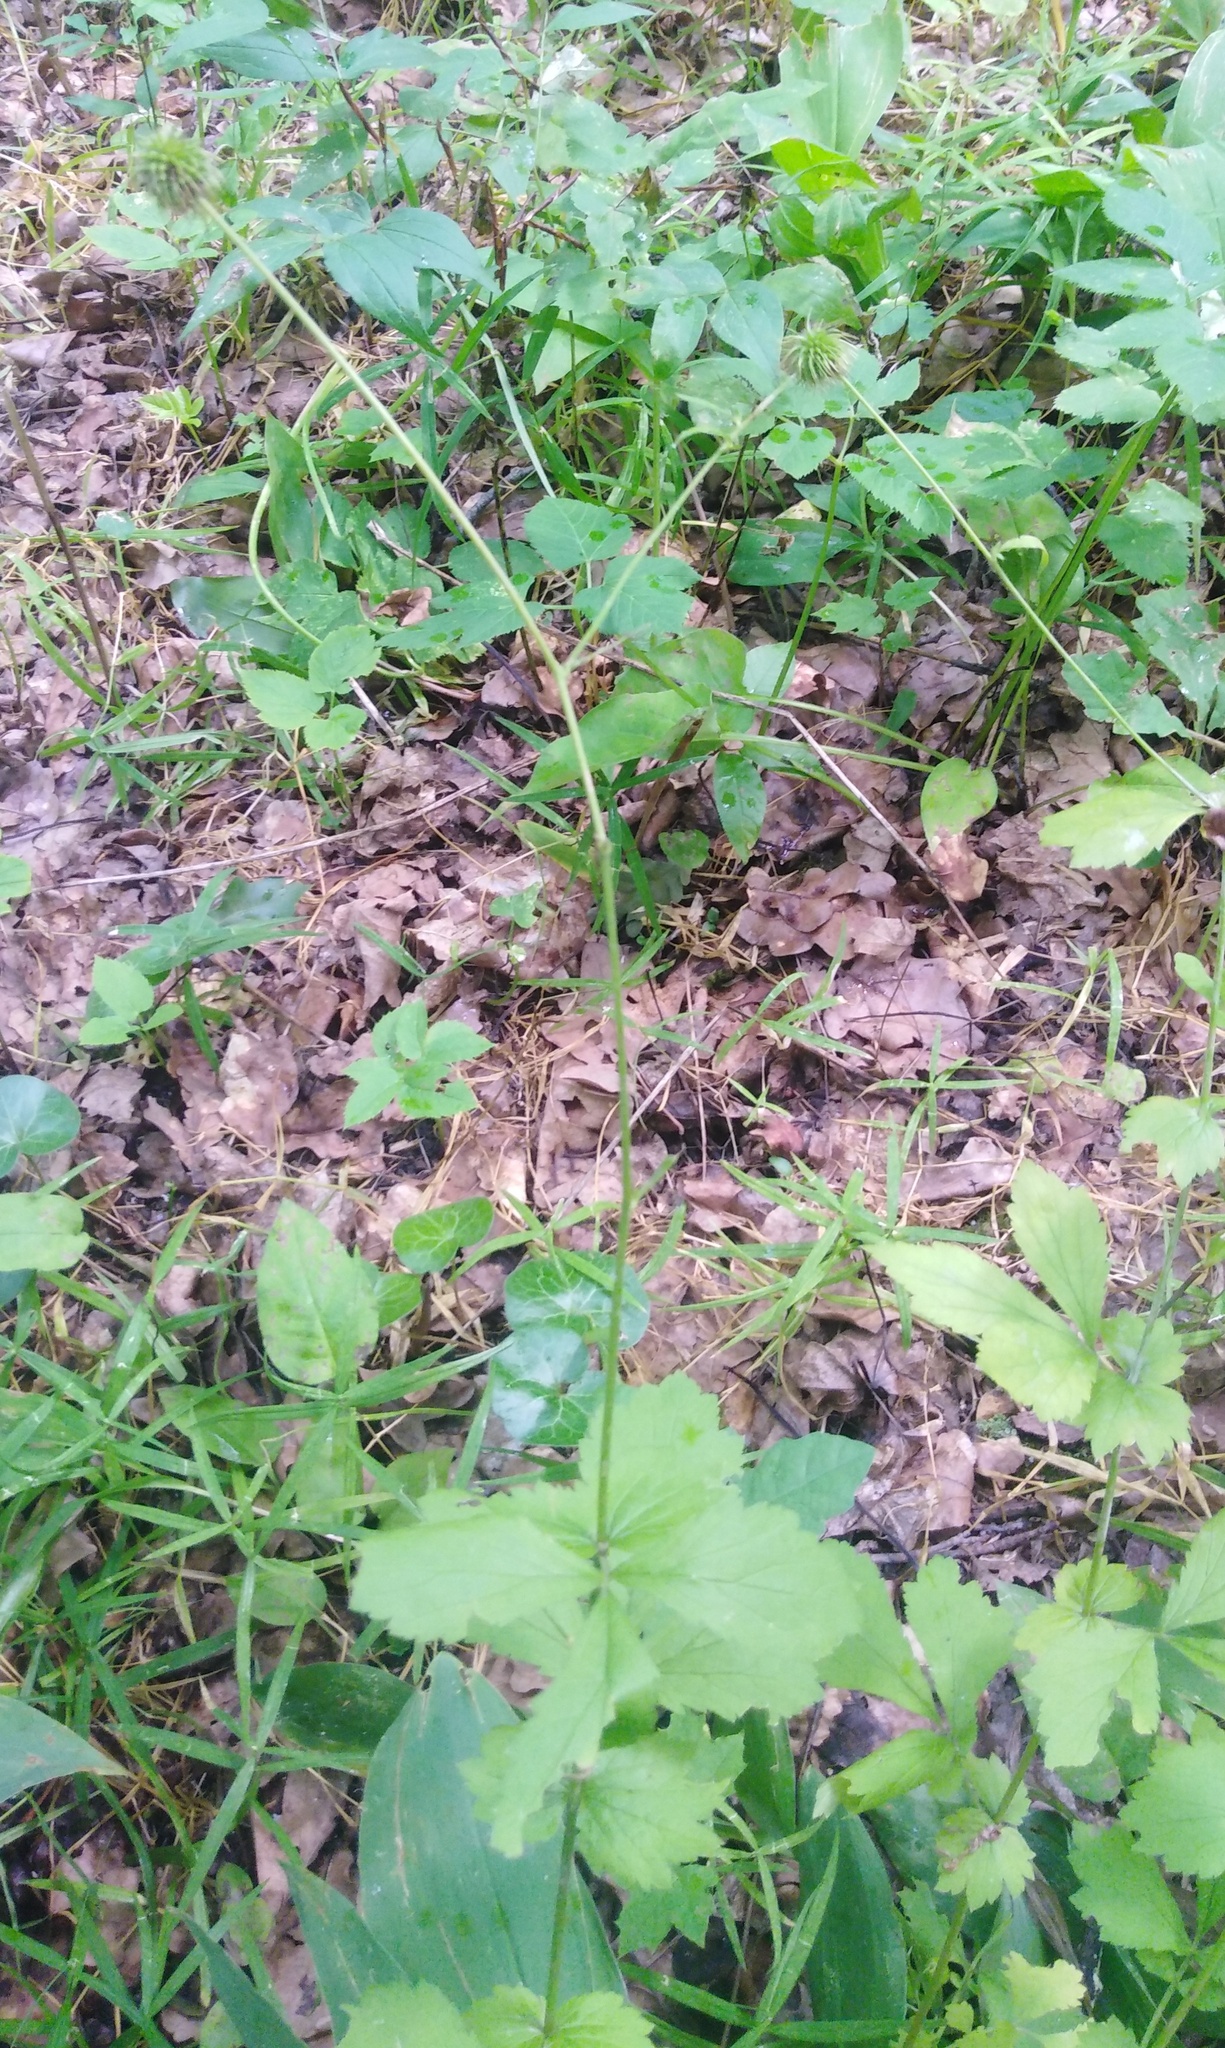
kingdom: Plantae
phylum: Tracheophyta
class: Magnoliopsida
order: Rosales
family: Rosaceae
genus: Geum
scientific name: Geum urbanum
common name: Wood avens
